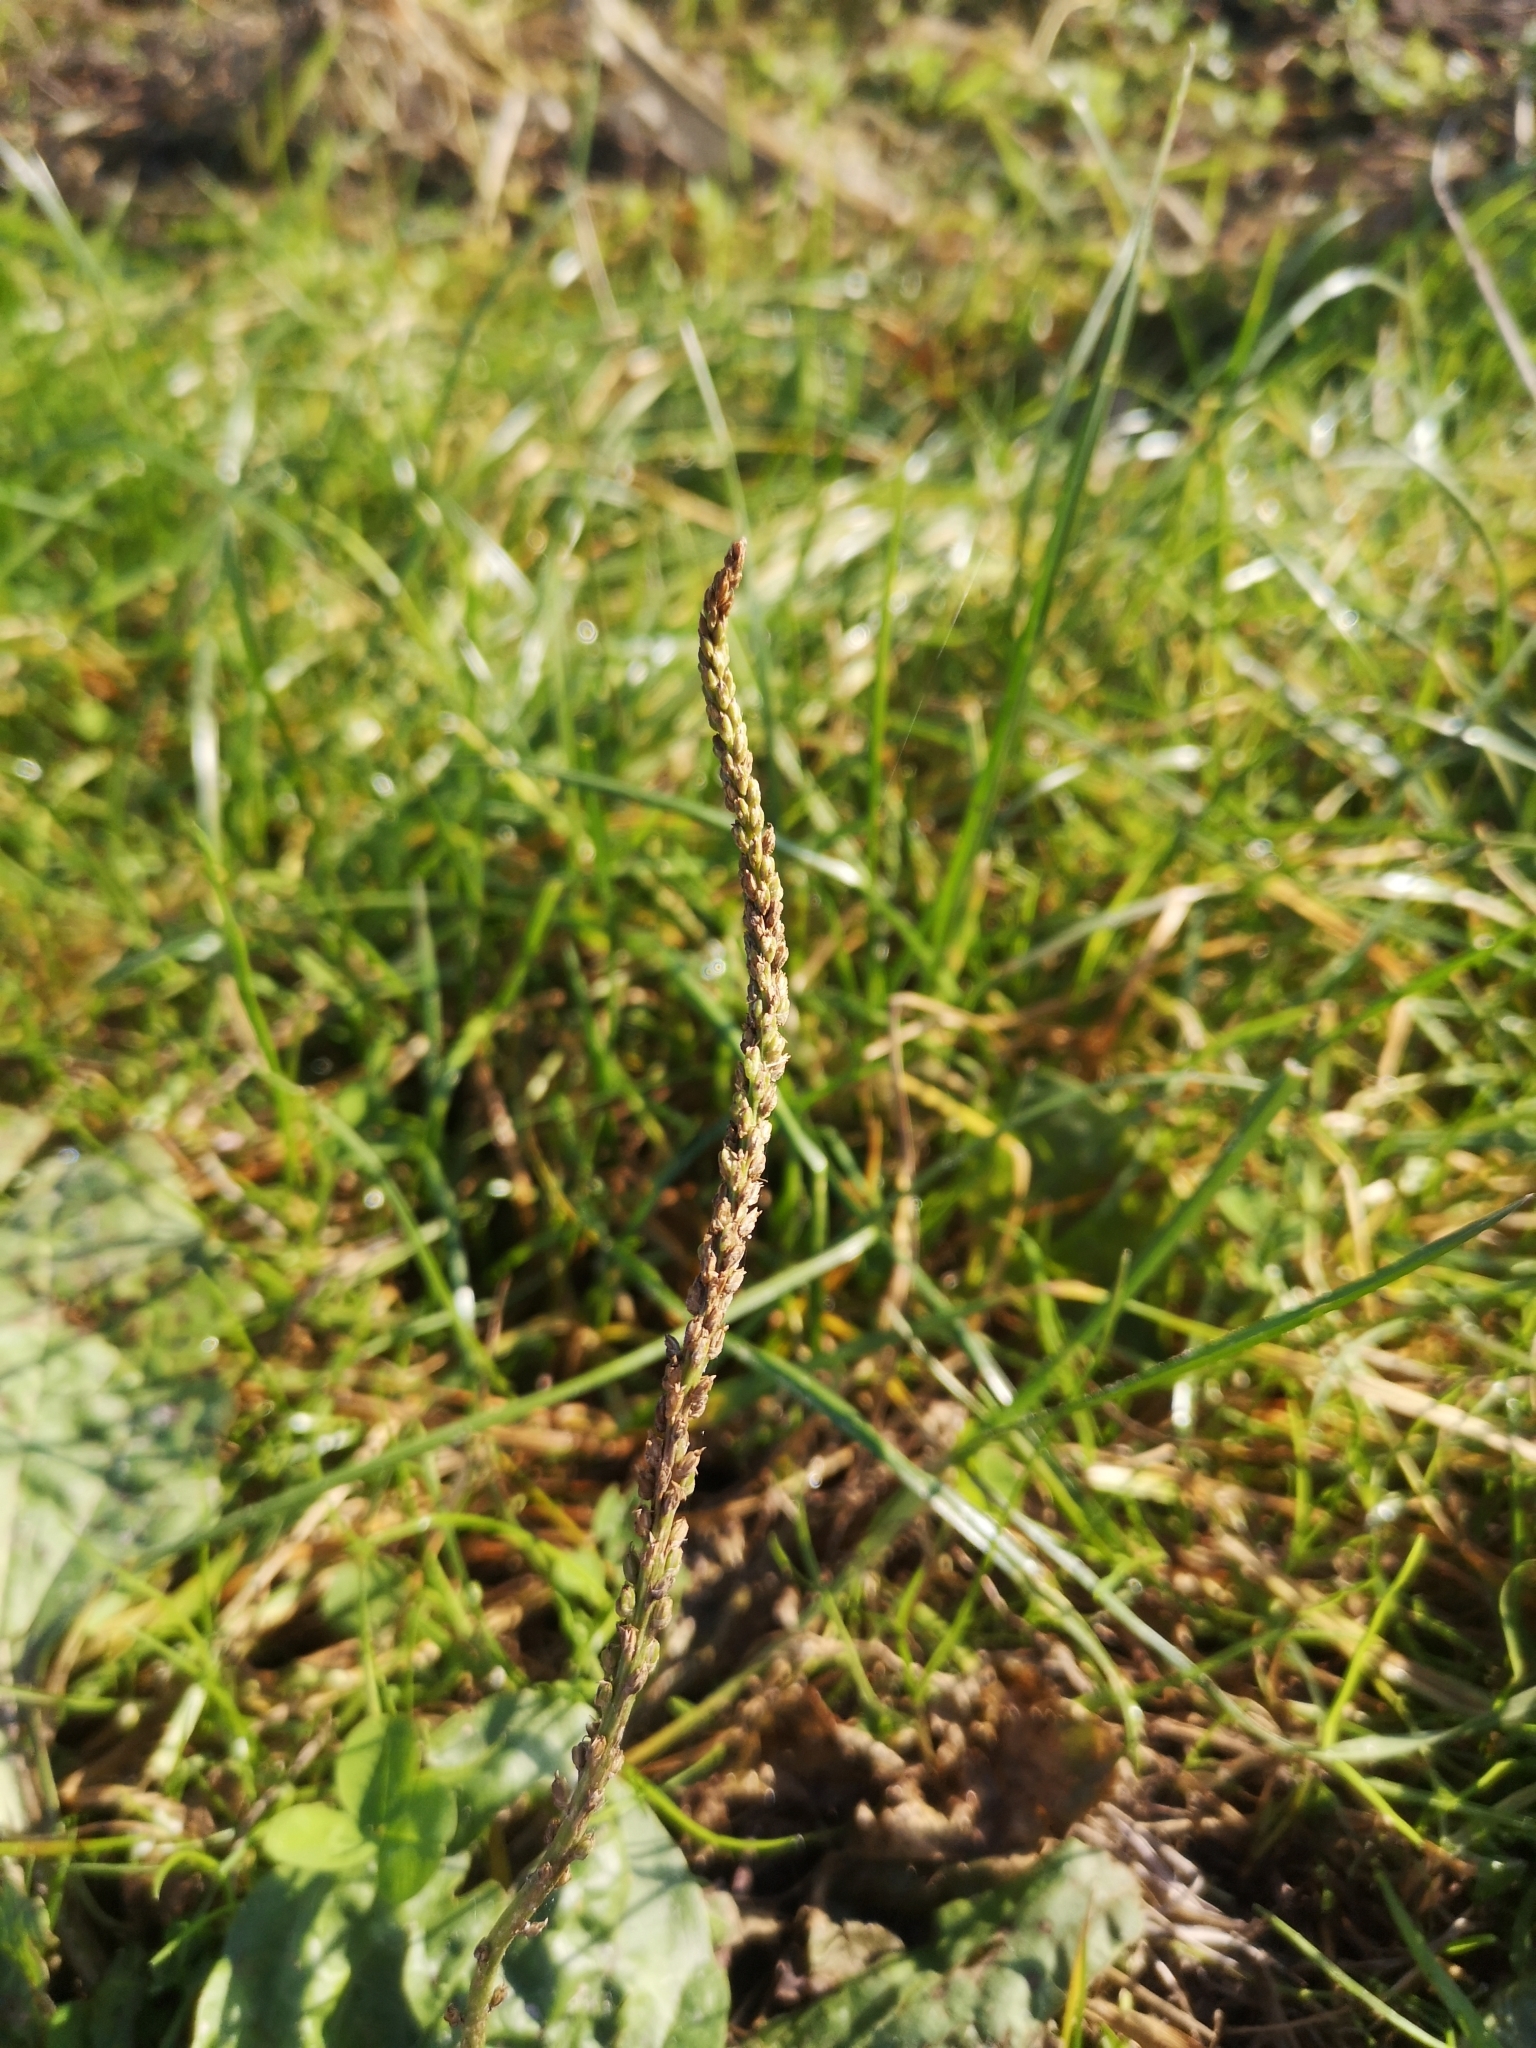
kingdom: Plantae
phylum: Tracheophyta
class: Magnoliopsida
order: Lamiales
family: Plantaginaceae
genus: Plantago
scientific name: Plantago major
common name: Common plantain
